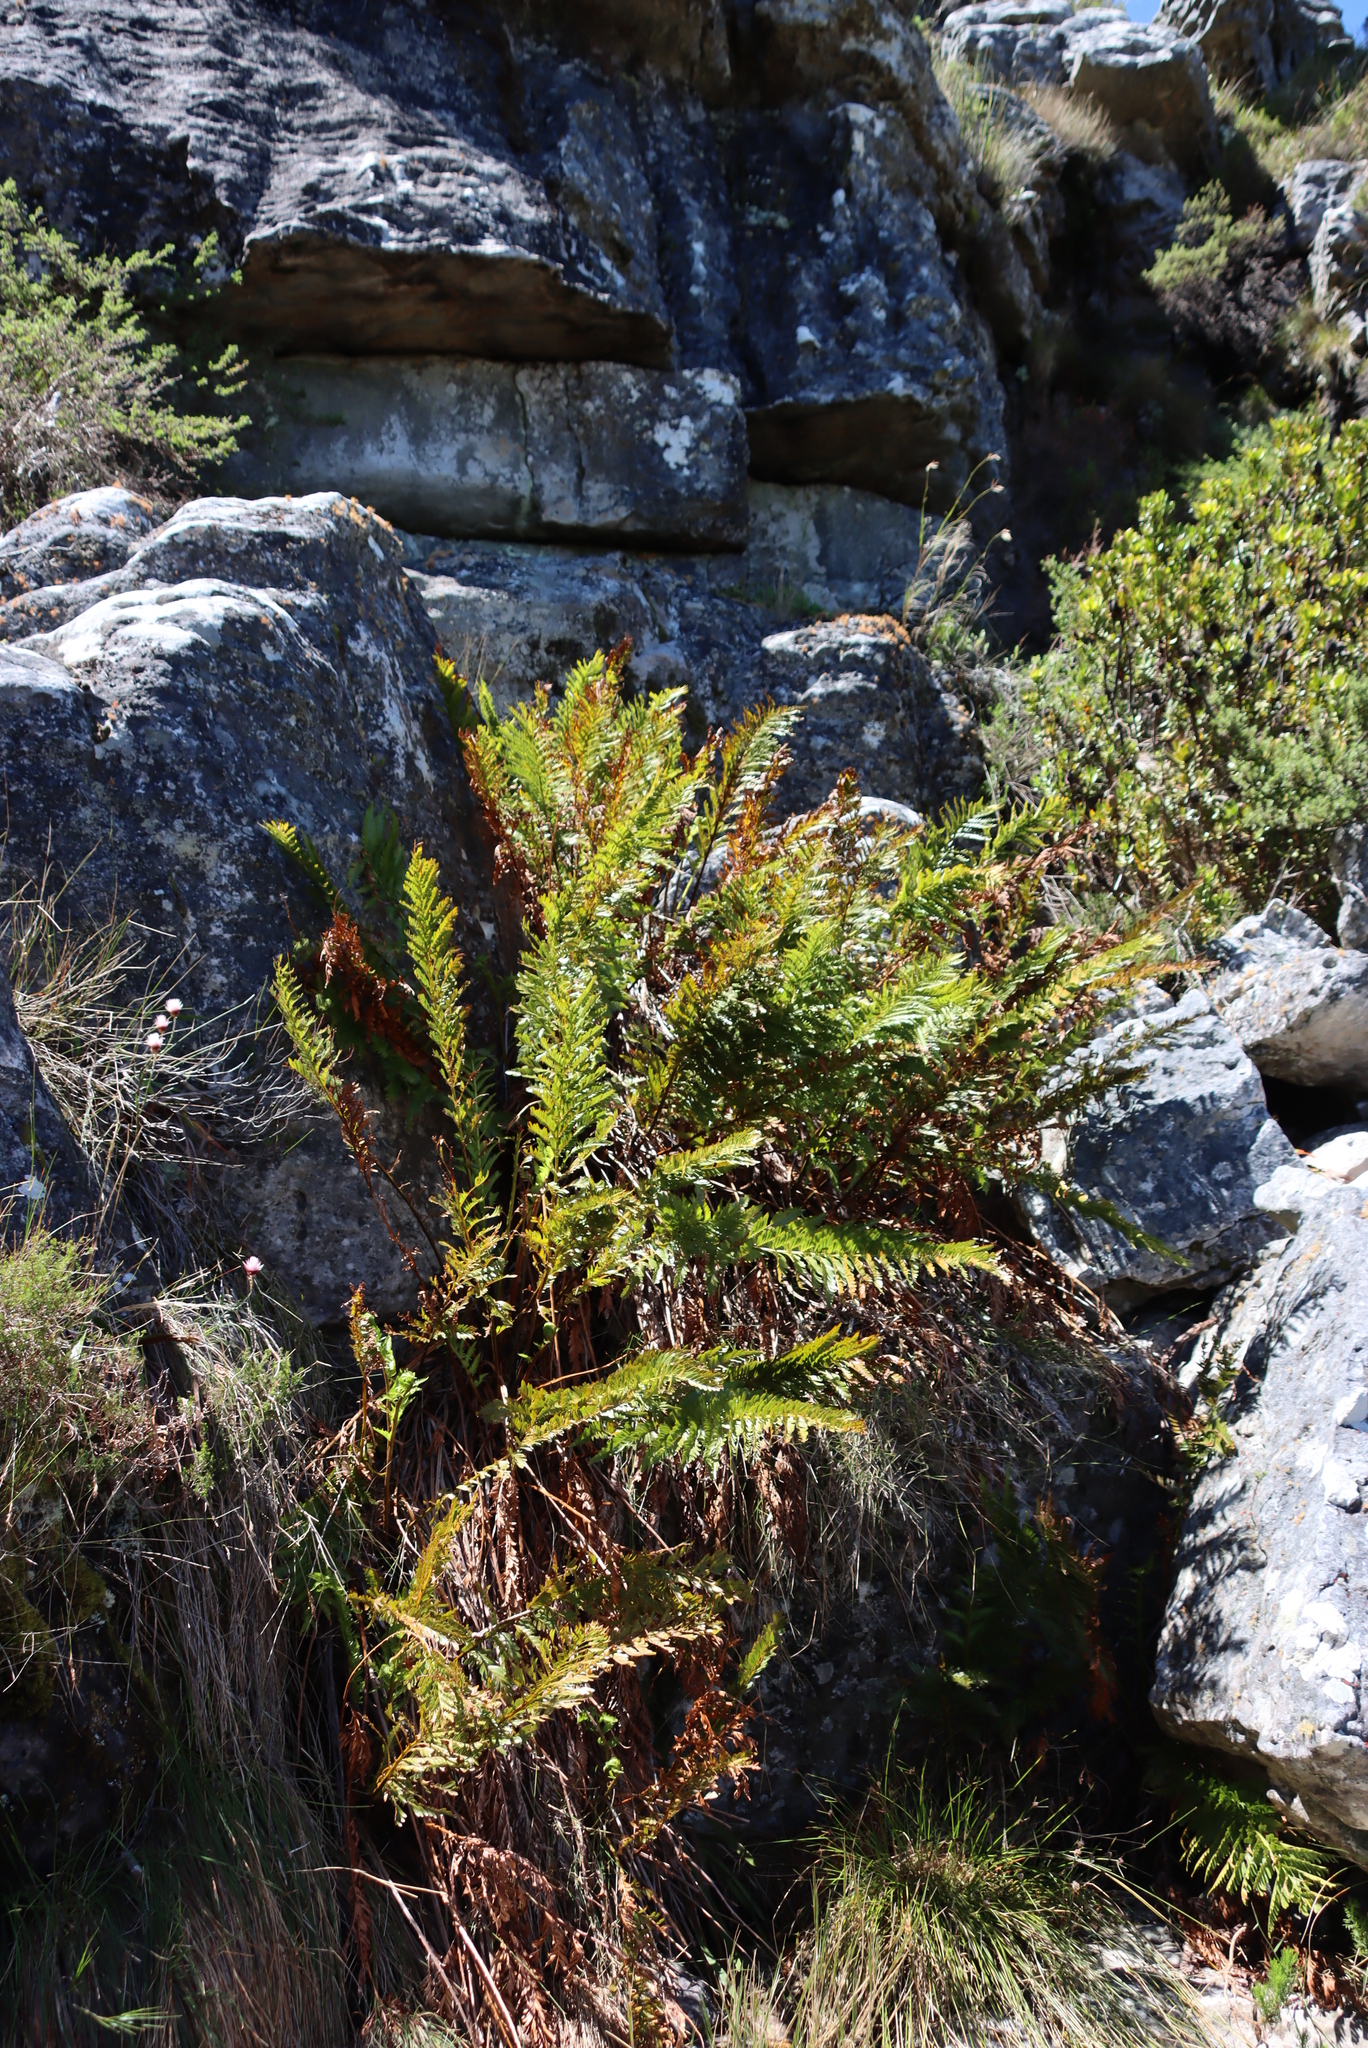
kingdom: Plantae
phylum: Tracheophyta
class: Polypodiopsida
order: Osmundales
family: Osmundaceae
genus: Todea
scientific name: Todea barbara
